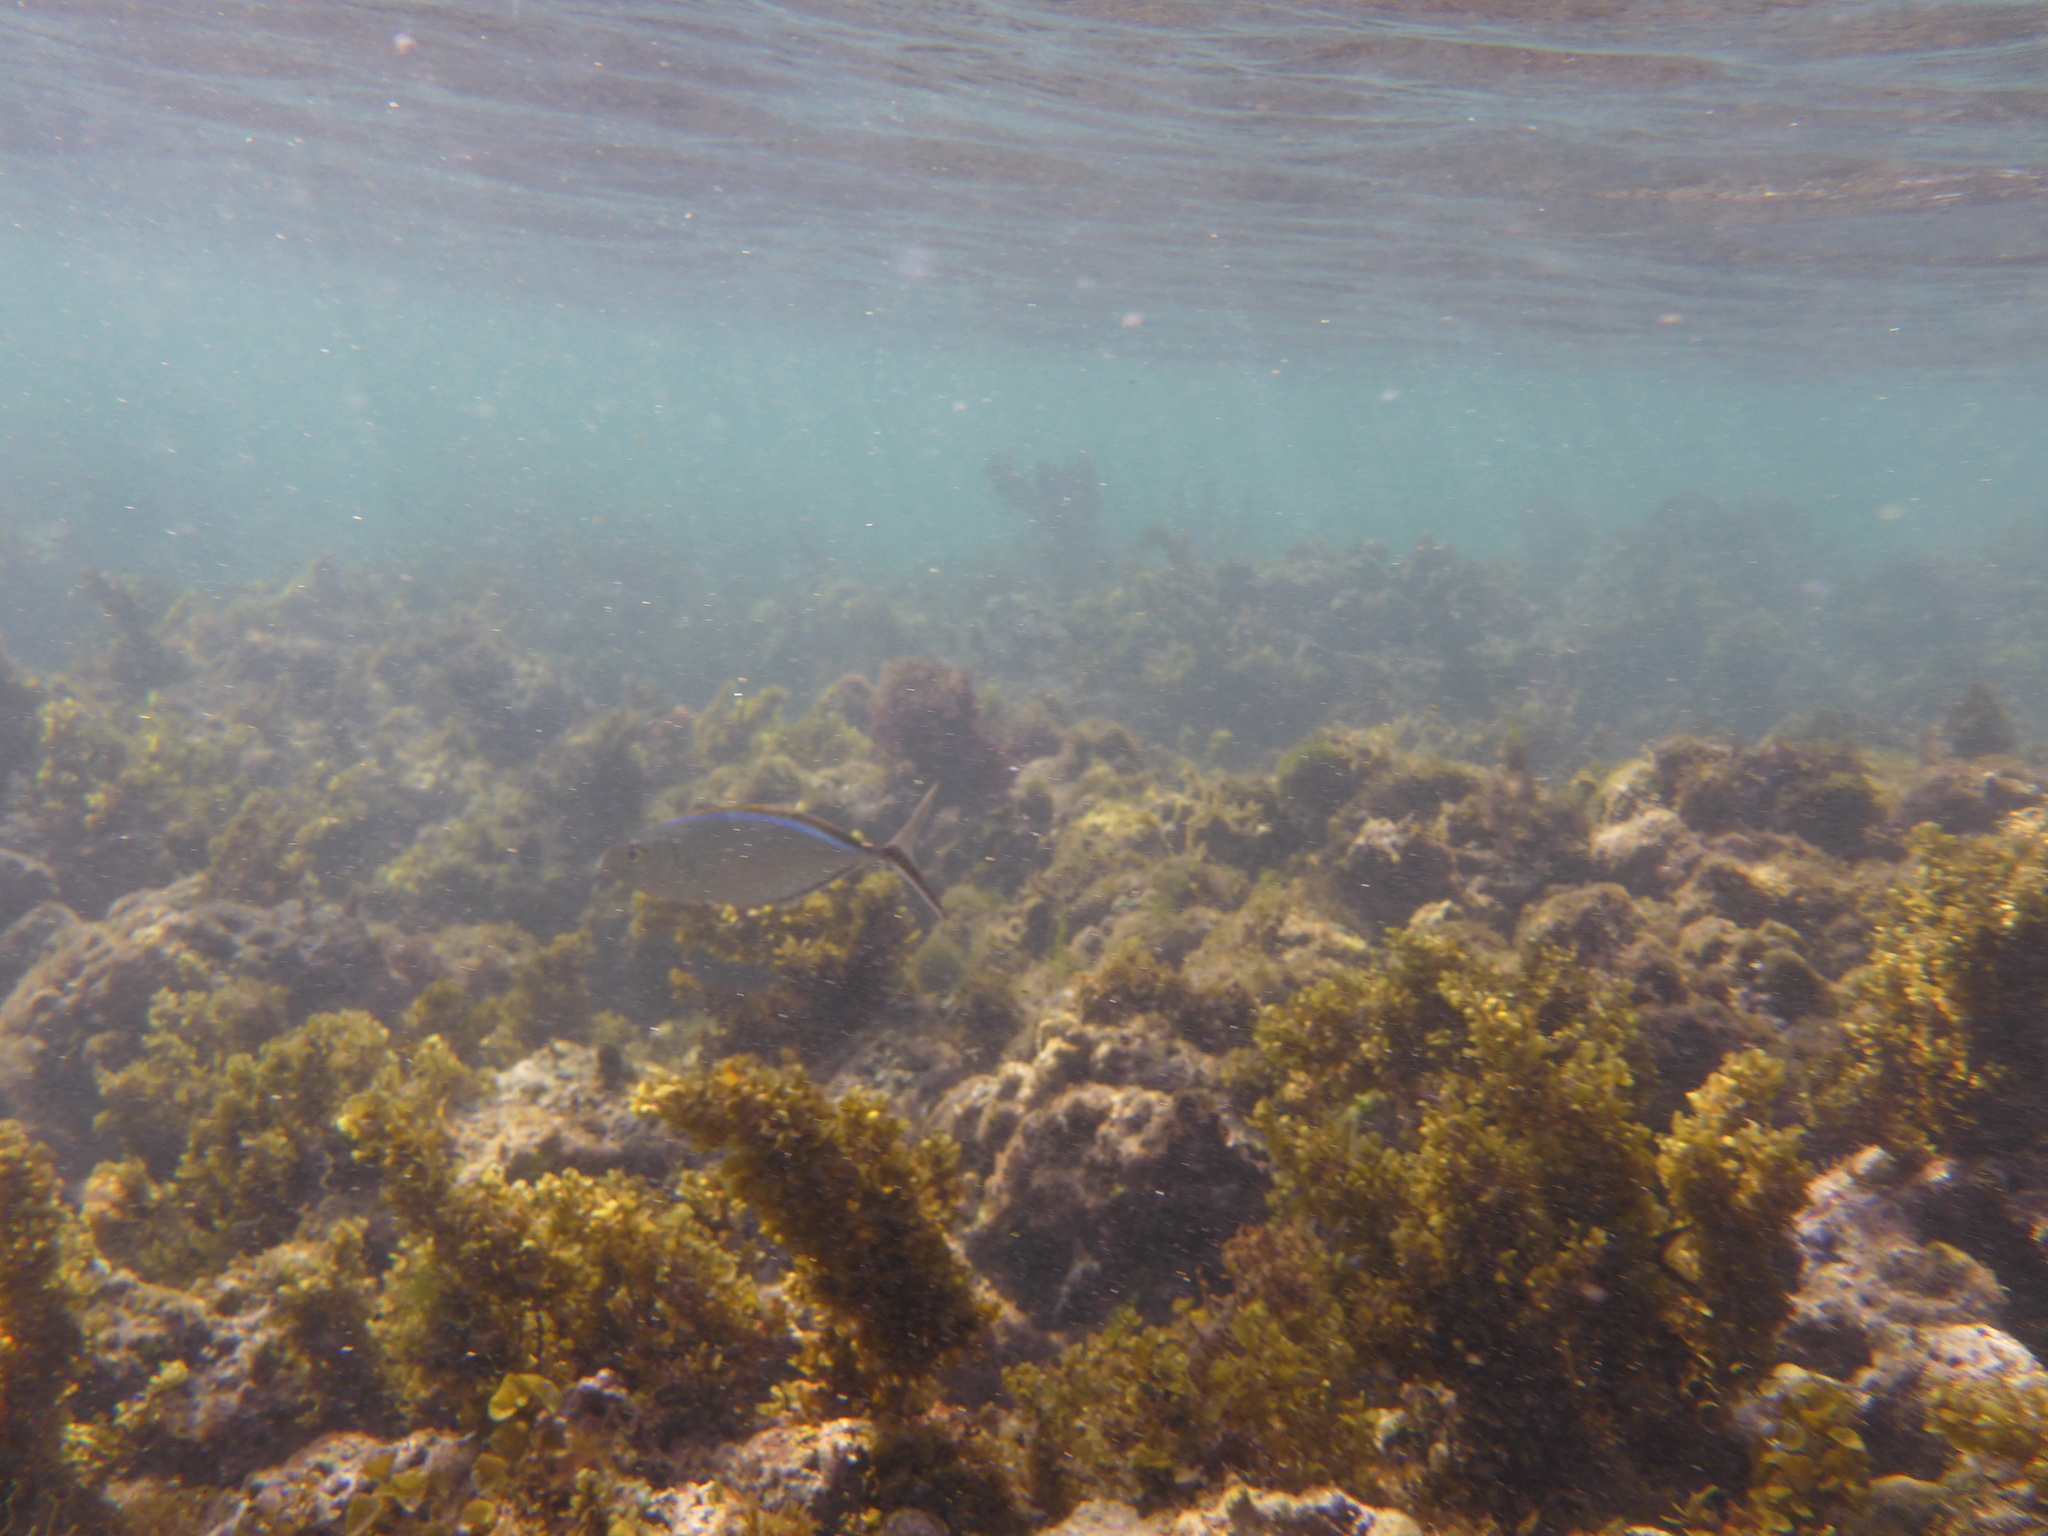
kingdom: Animalia
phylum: Chordata
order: Perciformes
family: Carangidae
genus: Caranx
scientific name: Caranx ruber
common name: Bar jack
